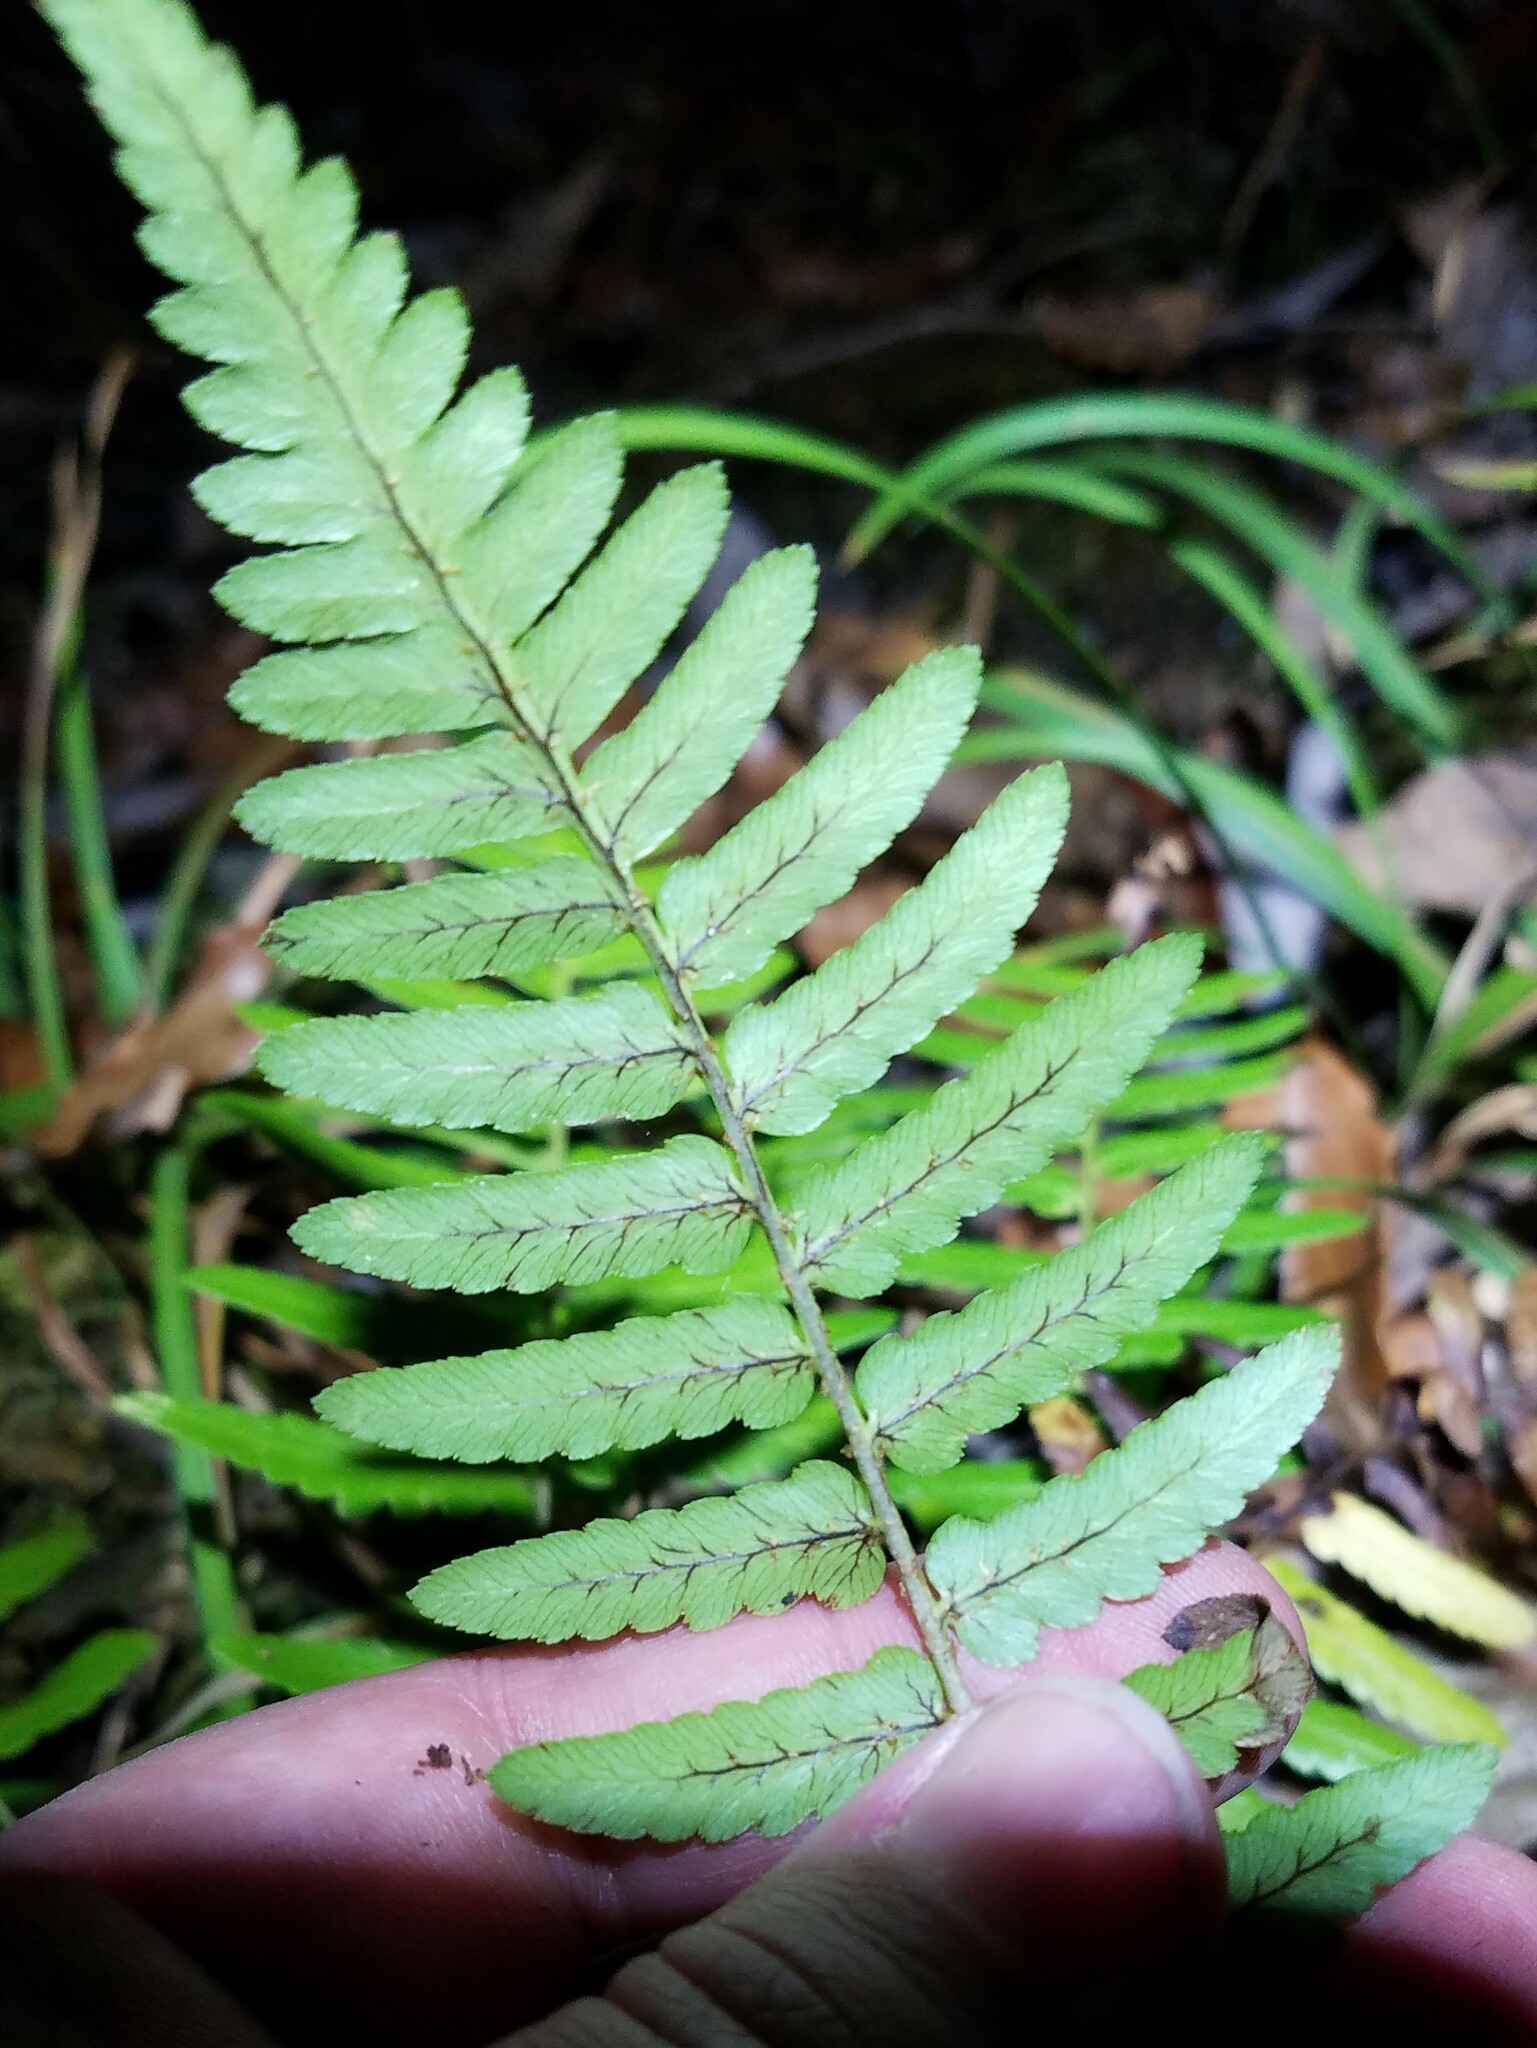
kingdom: Plantae
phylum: Tracheophyta
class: Polypodiopsida
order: Polypodiales
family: Dryopteridaceae
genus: Dryopteris
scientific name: Dryopteris ludoviciana
